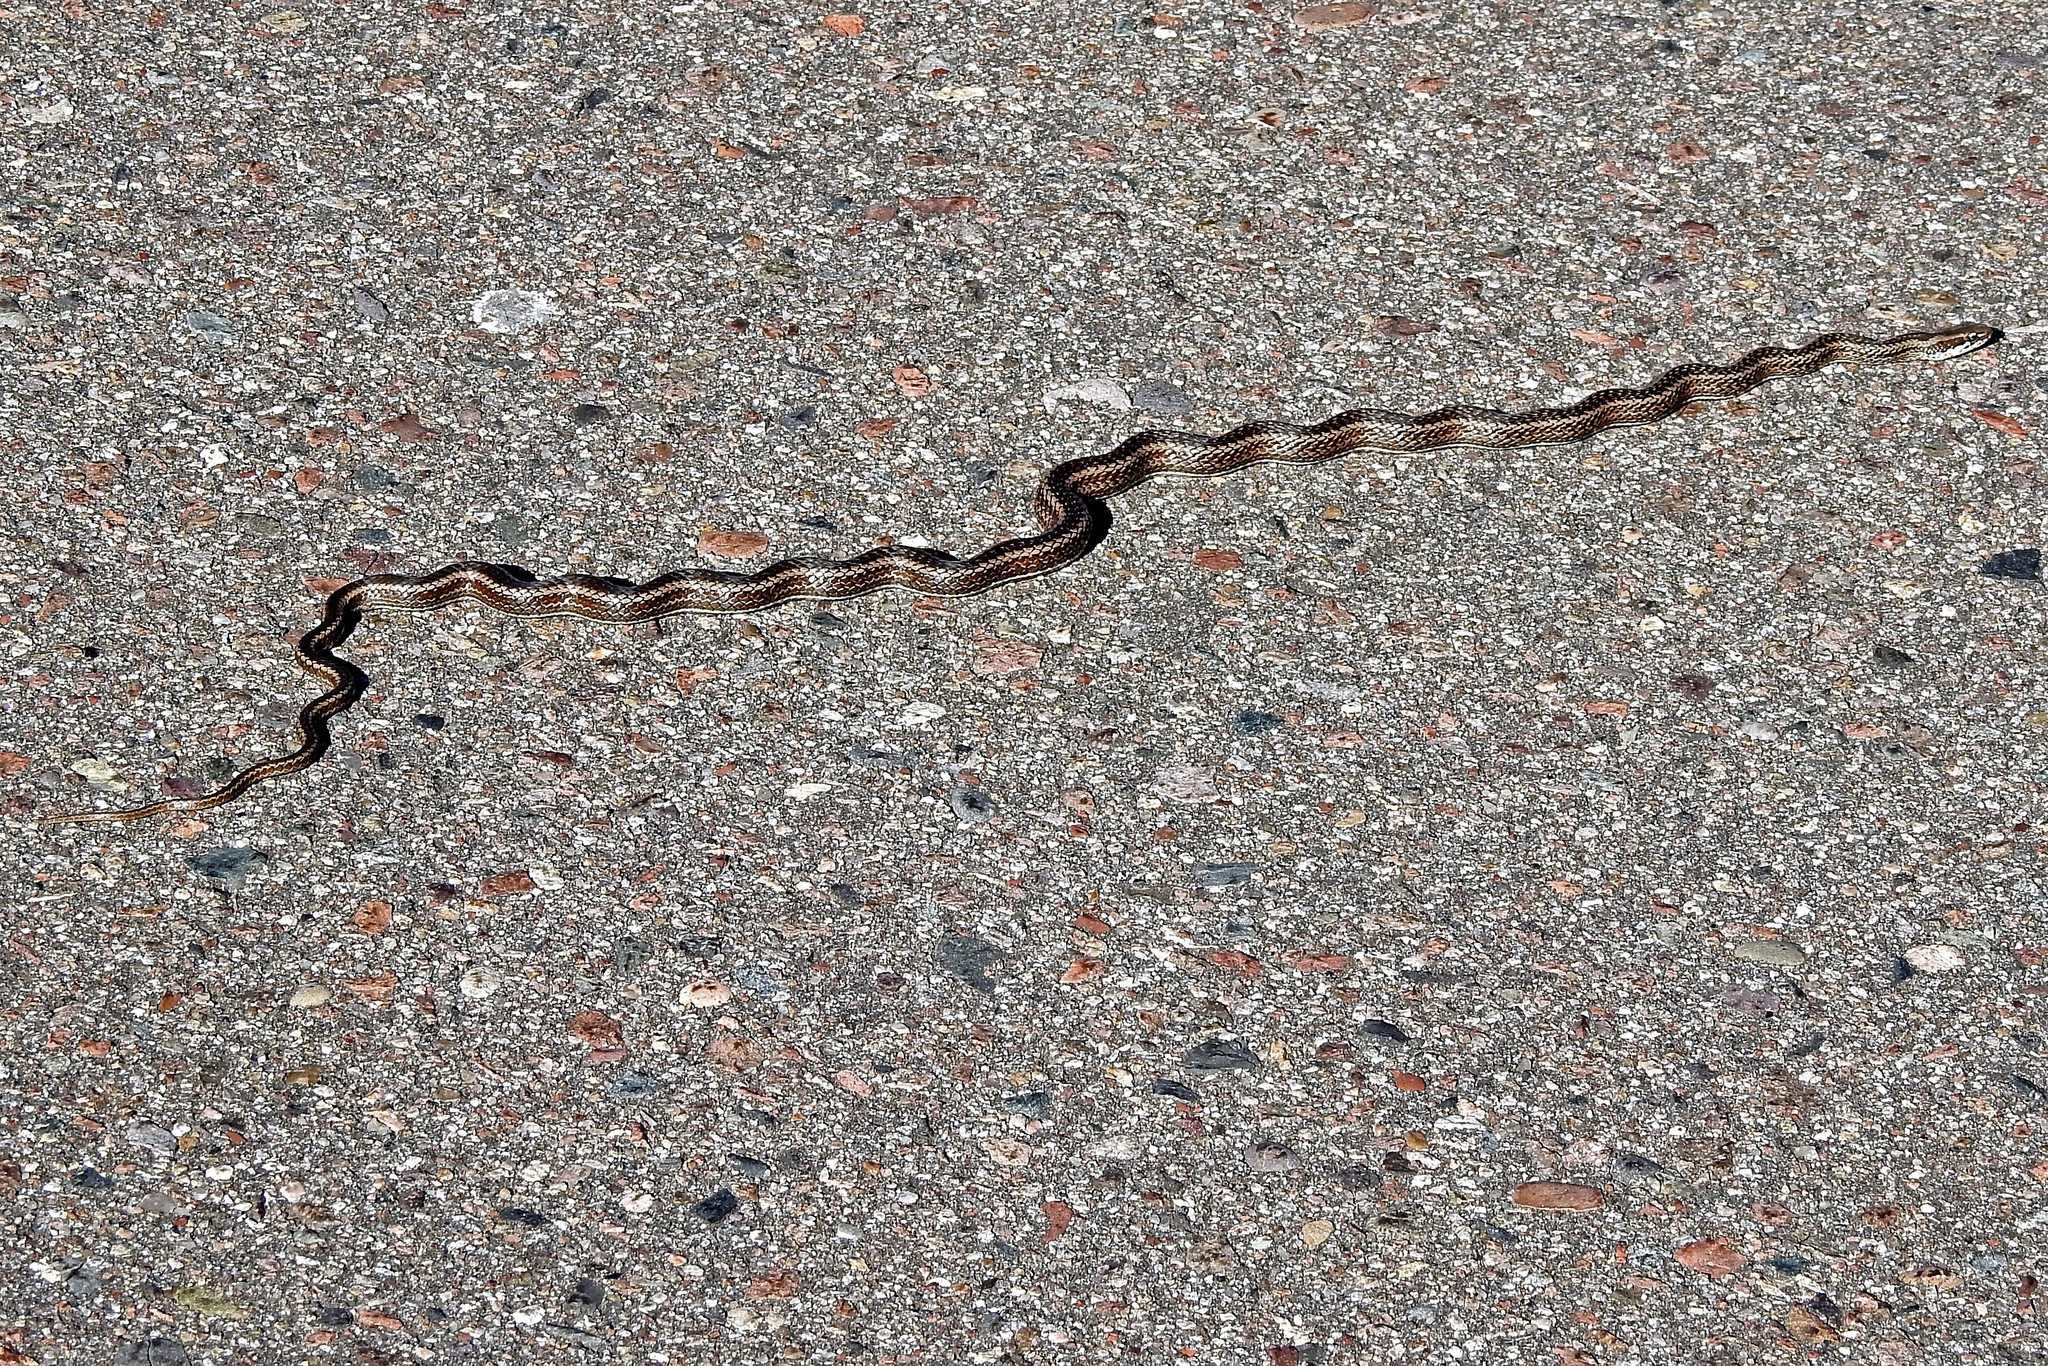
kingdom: Animalia
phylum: Chordata
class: Squamata
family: Colubridae
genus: Philodryas
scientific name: Philodryas psammophidea
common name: Günther's green racer
